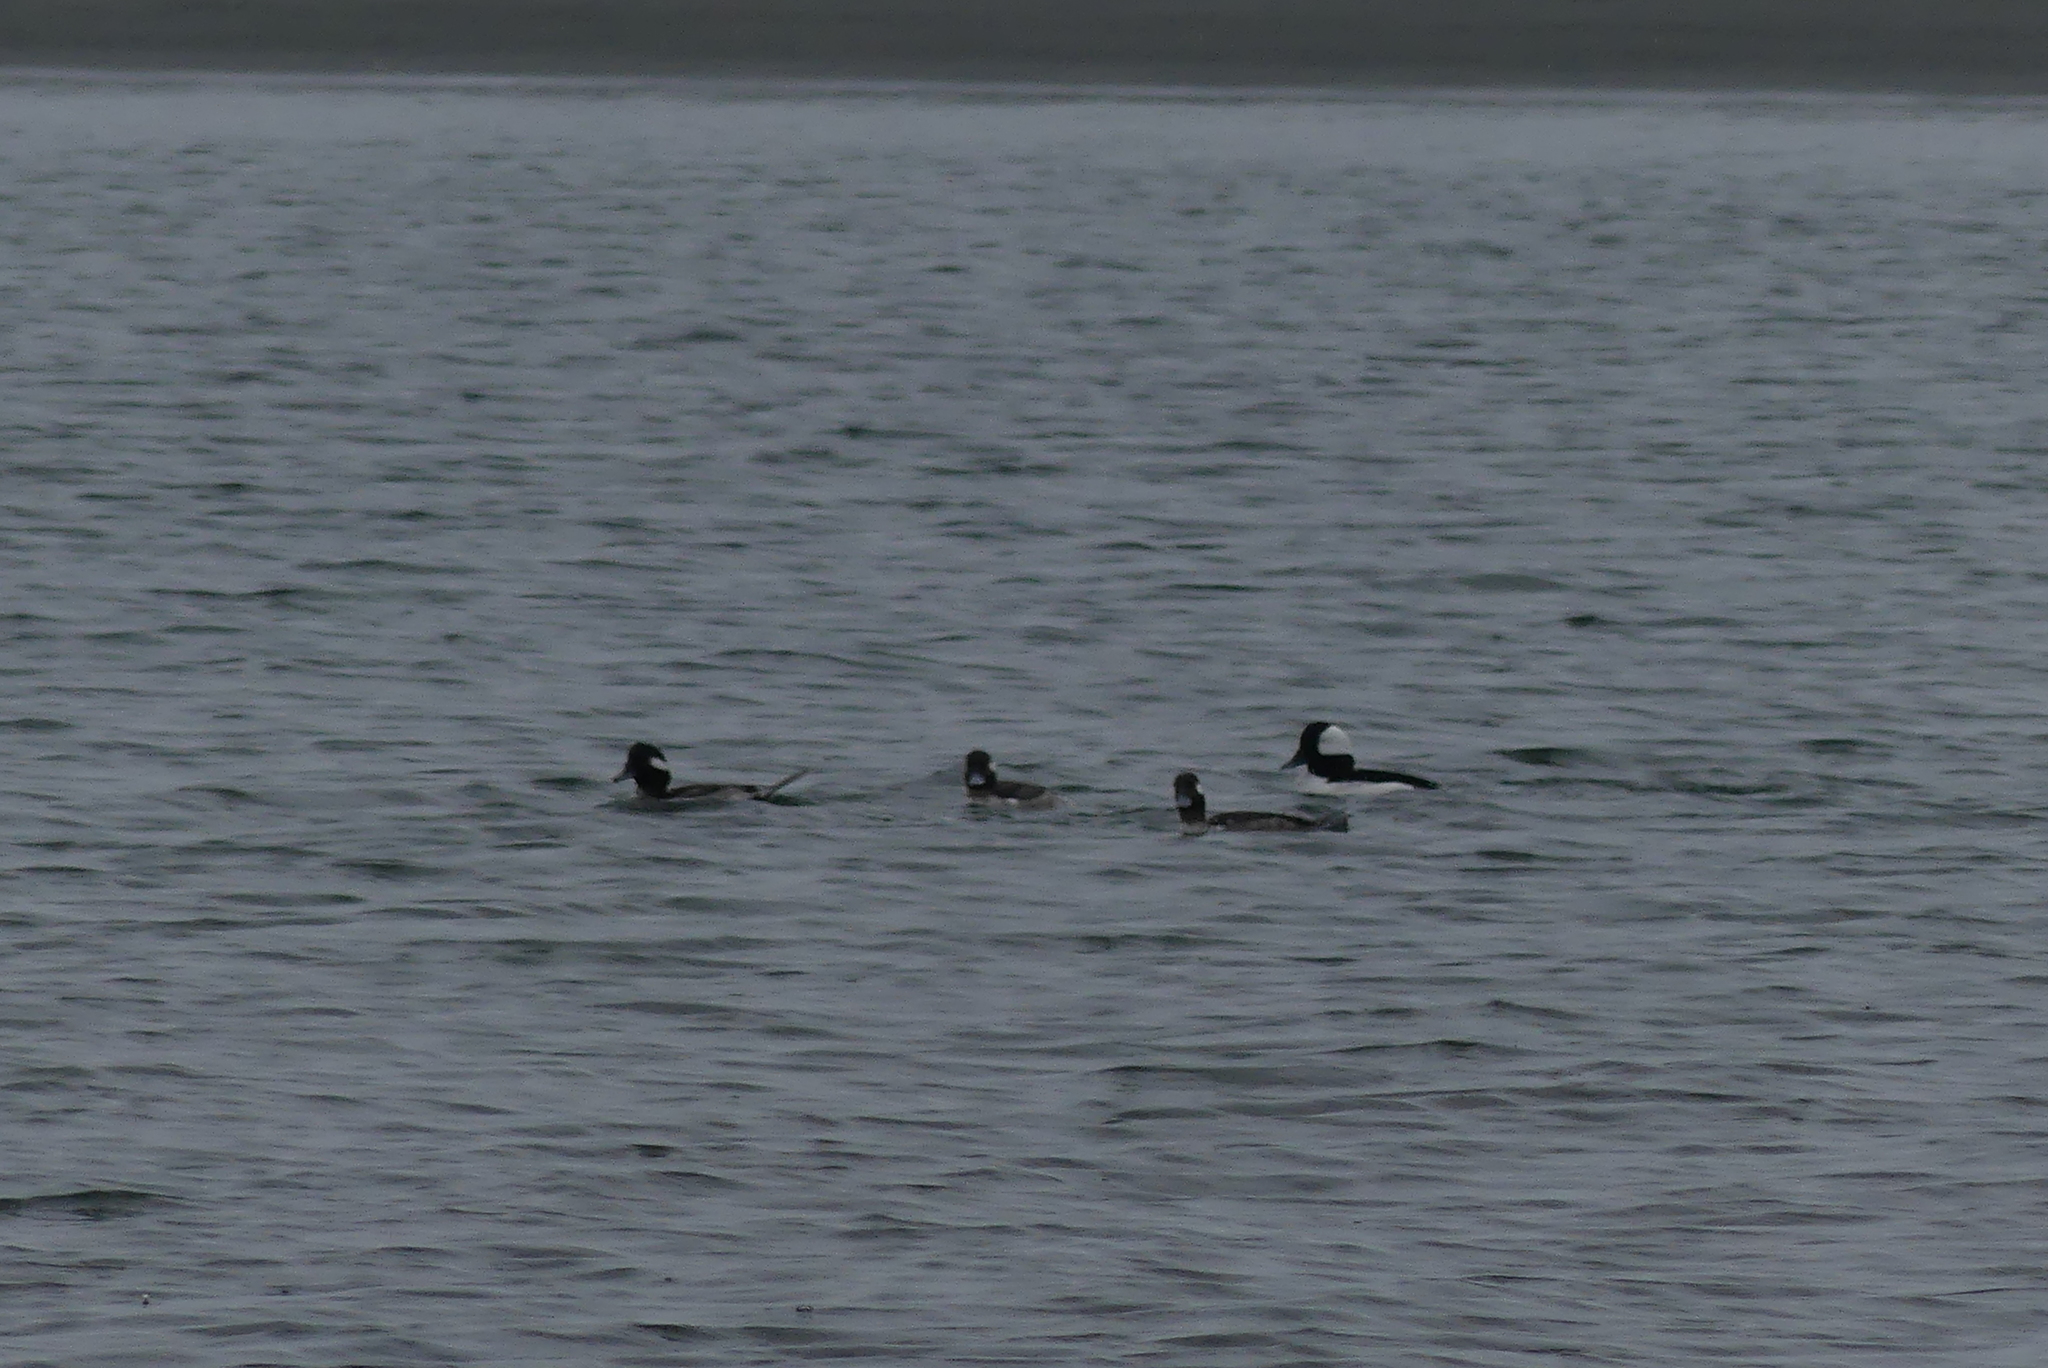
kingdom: Animalia
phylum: Chordata
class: Aves
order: Anseriformes
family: Anatidae
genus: Bucephala
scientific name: Bucephala albeola
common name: Bufflehead
